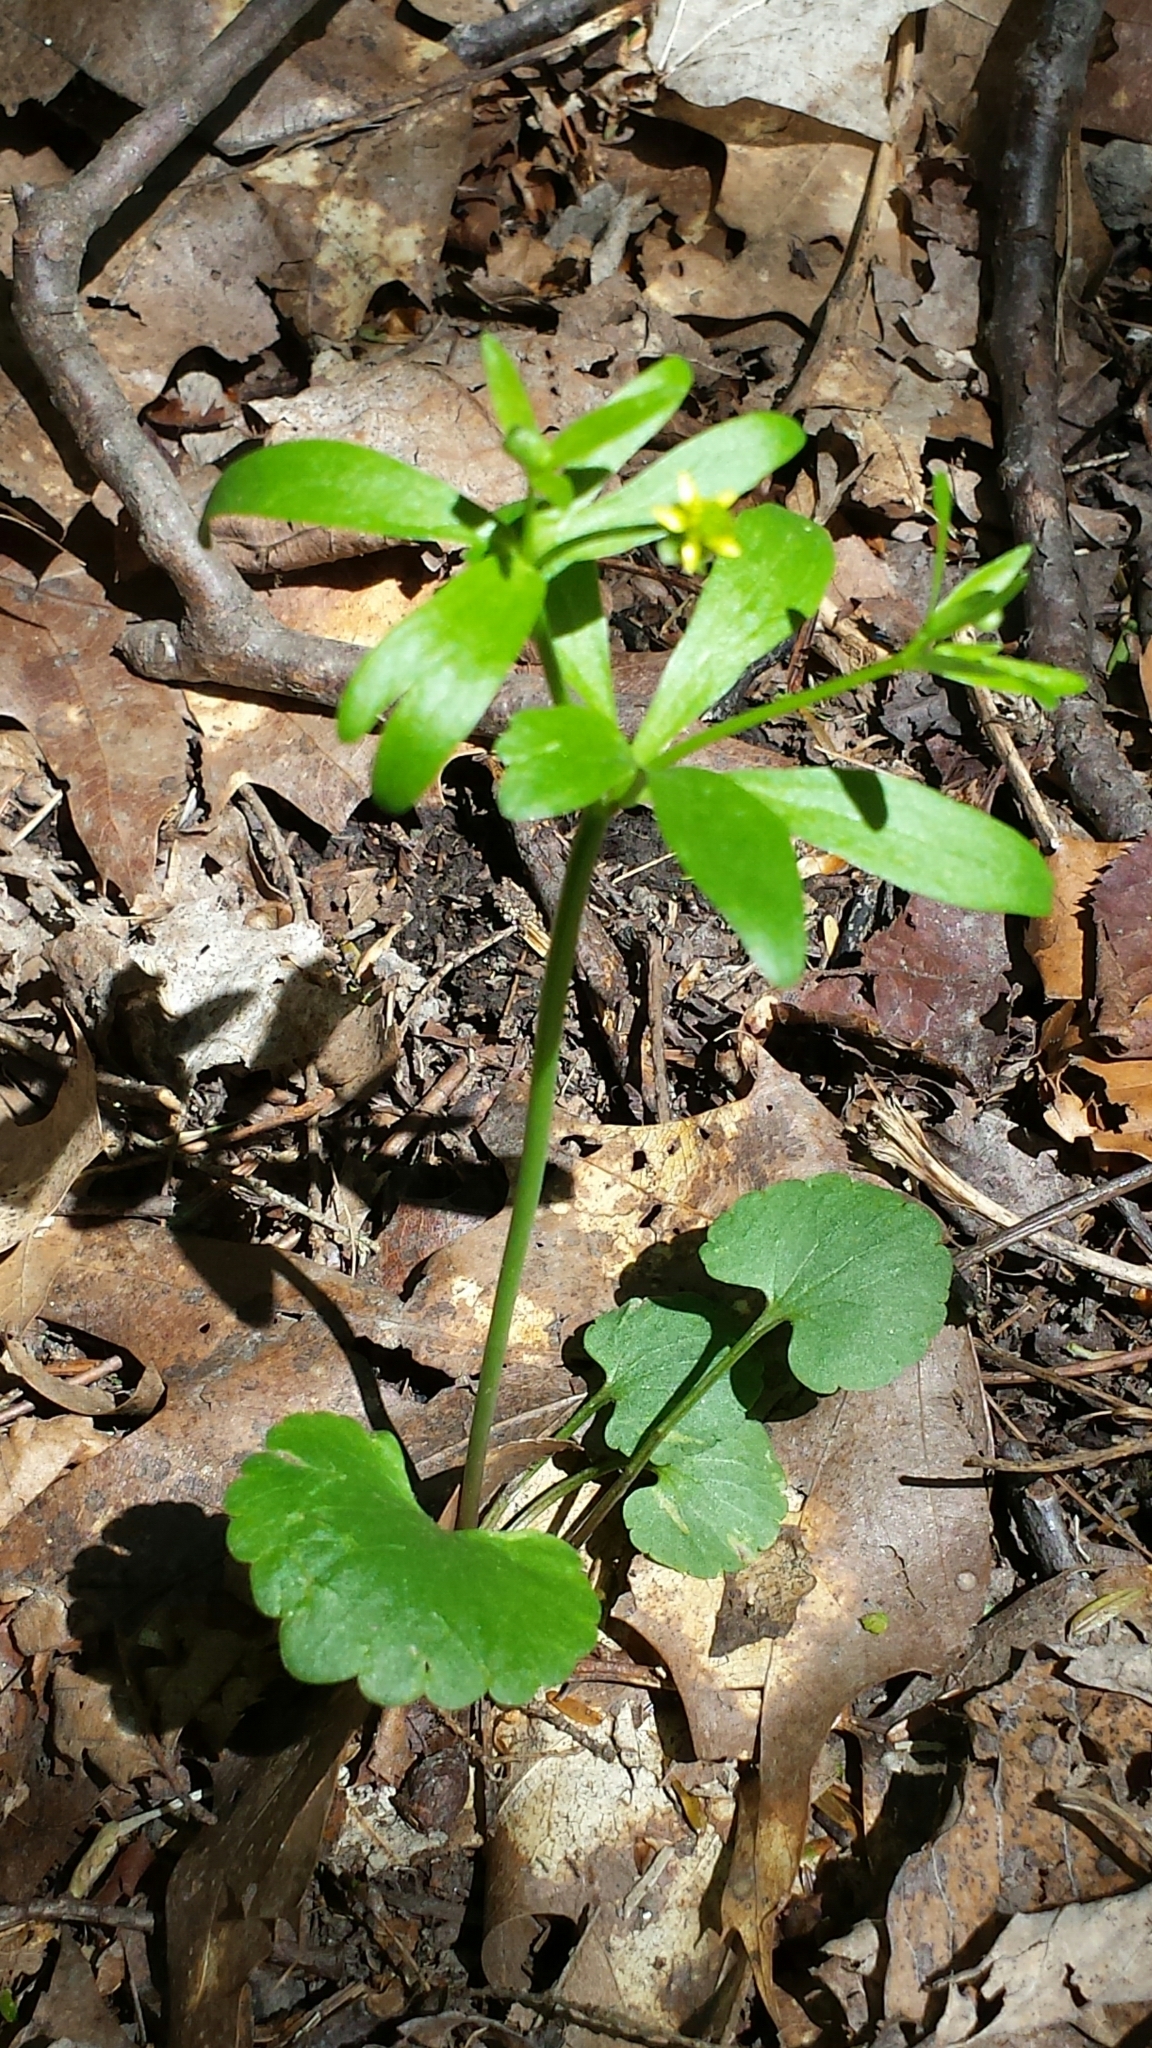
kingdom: Plantae
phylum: Tracheophyta
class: Magnoliopsida
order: Ranunculales
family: Ranunculaceae
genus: Ranunculus
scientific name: Ranunculus abortivus
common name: Early wood buttercup
